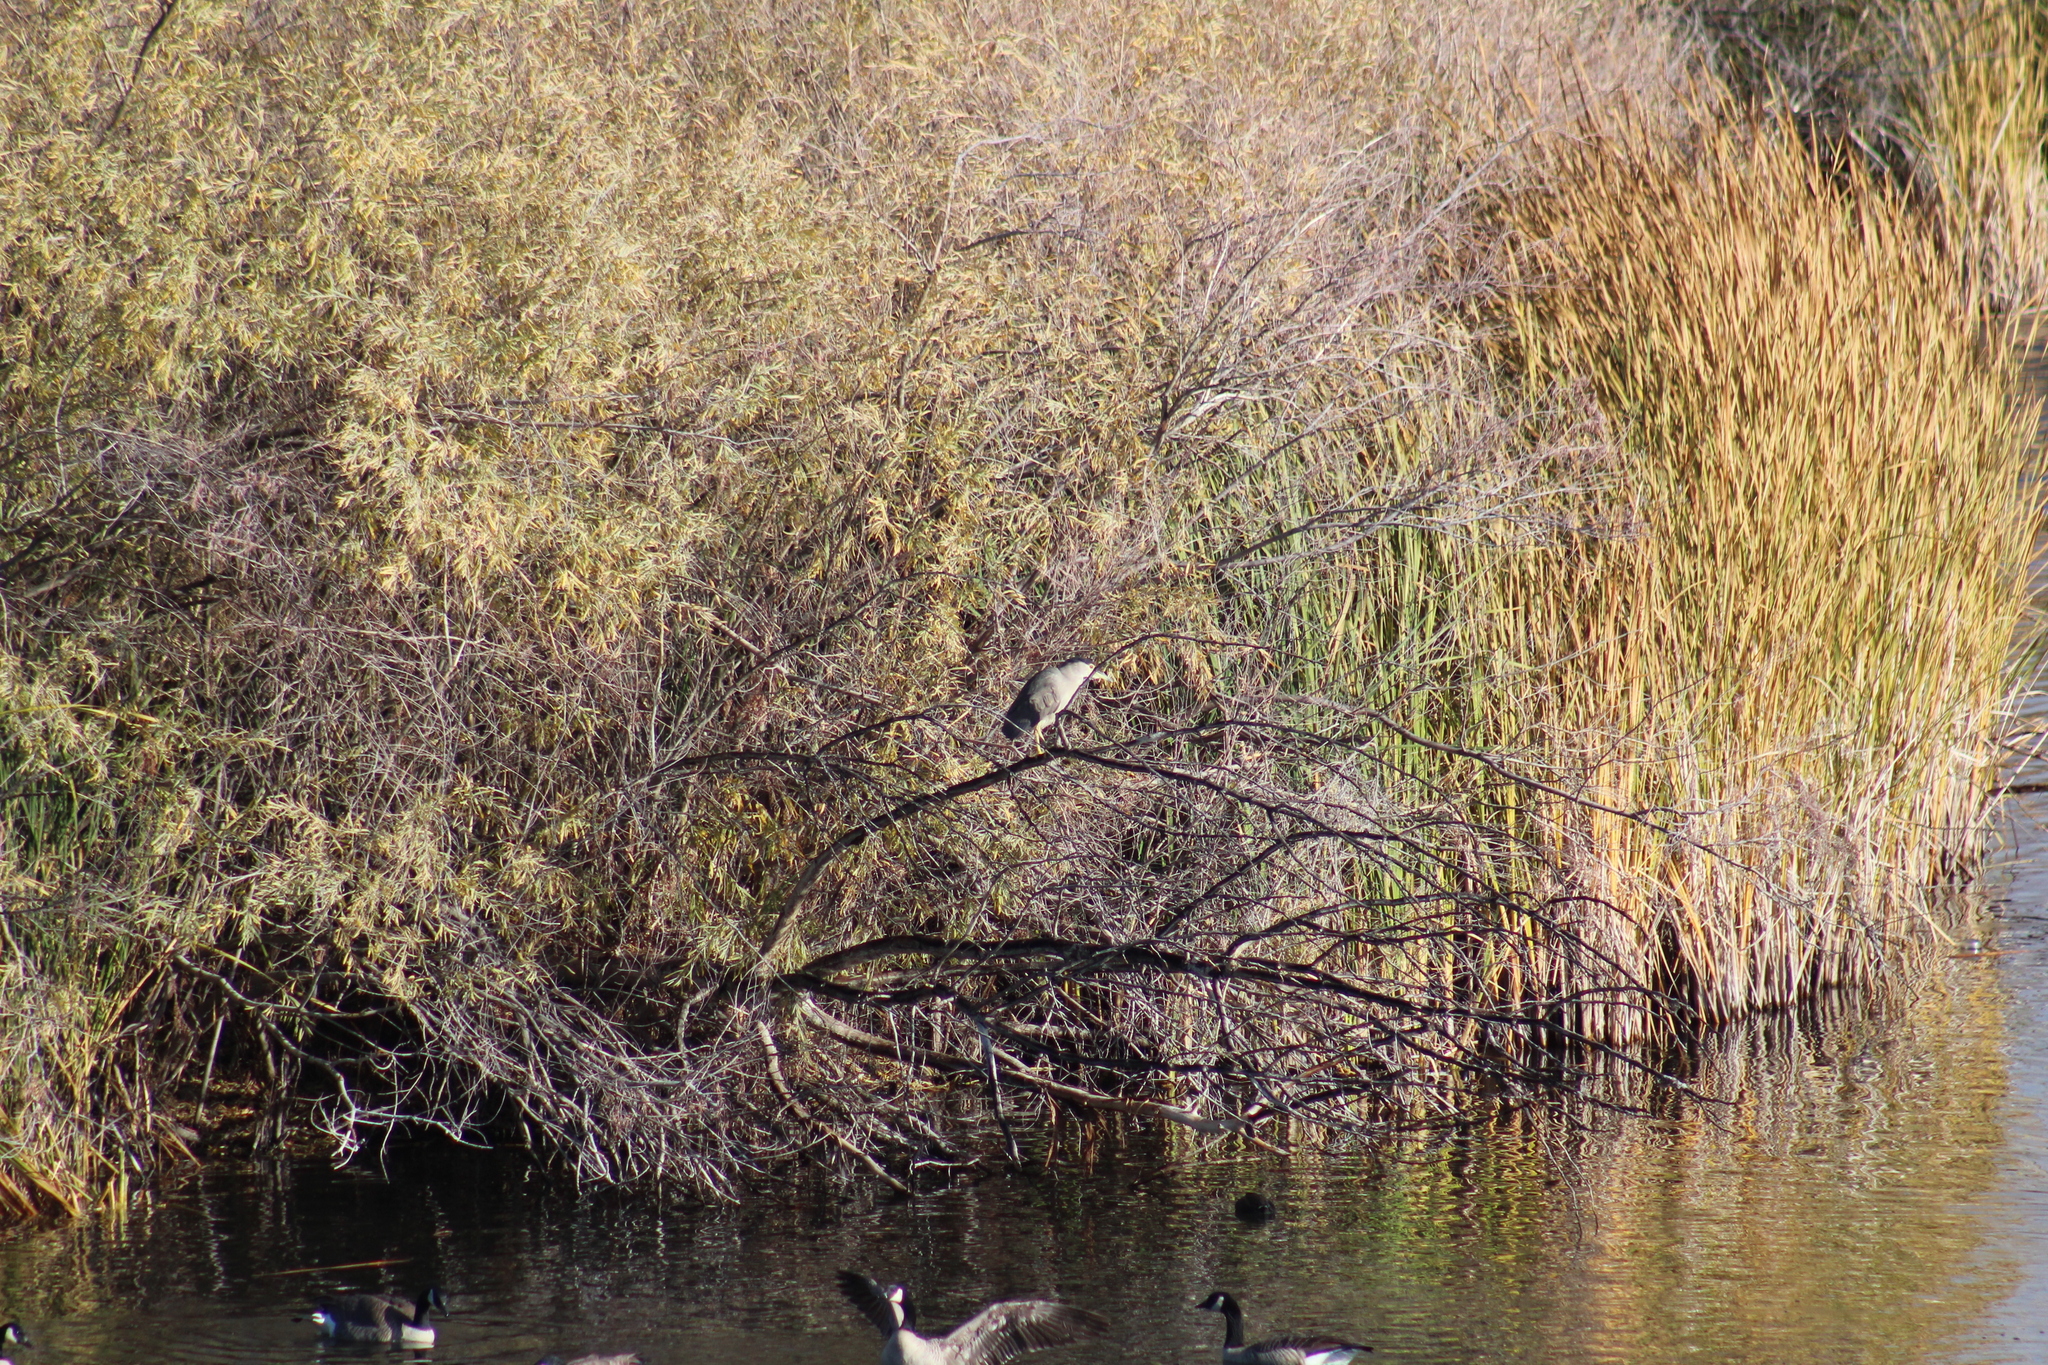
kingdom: Animalia
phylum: Chordata
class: Aves
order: Pelecaniformes
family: Ardeidae
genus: Nycticorax
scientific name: Nycticorax nycticorax
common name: Black-crowned night heron
